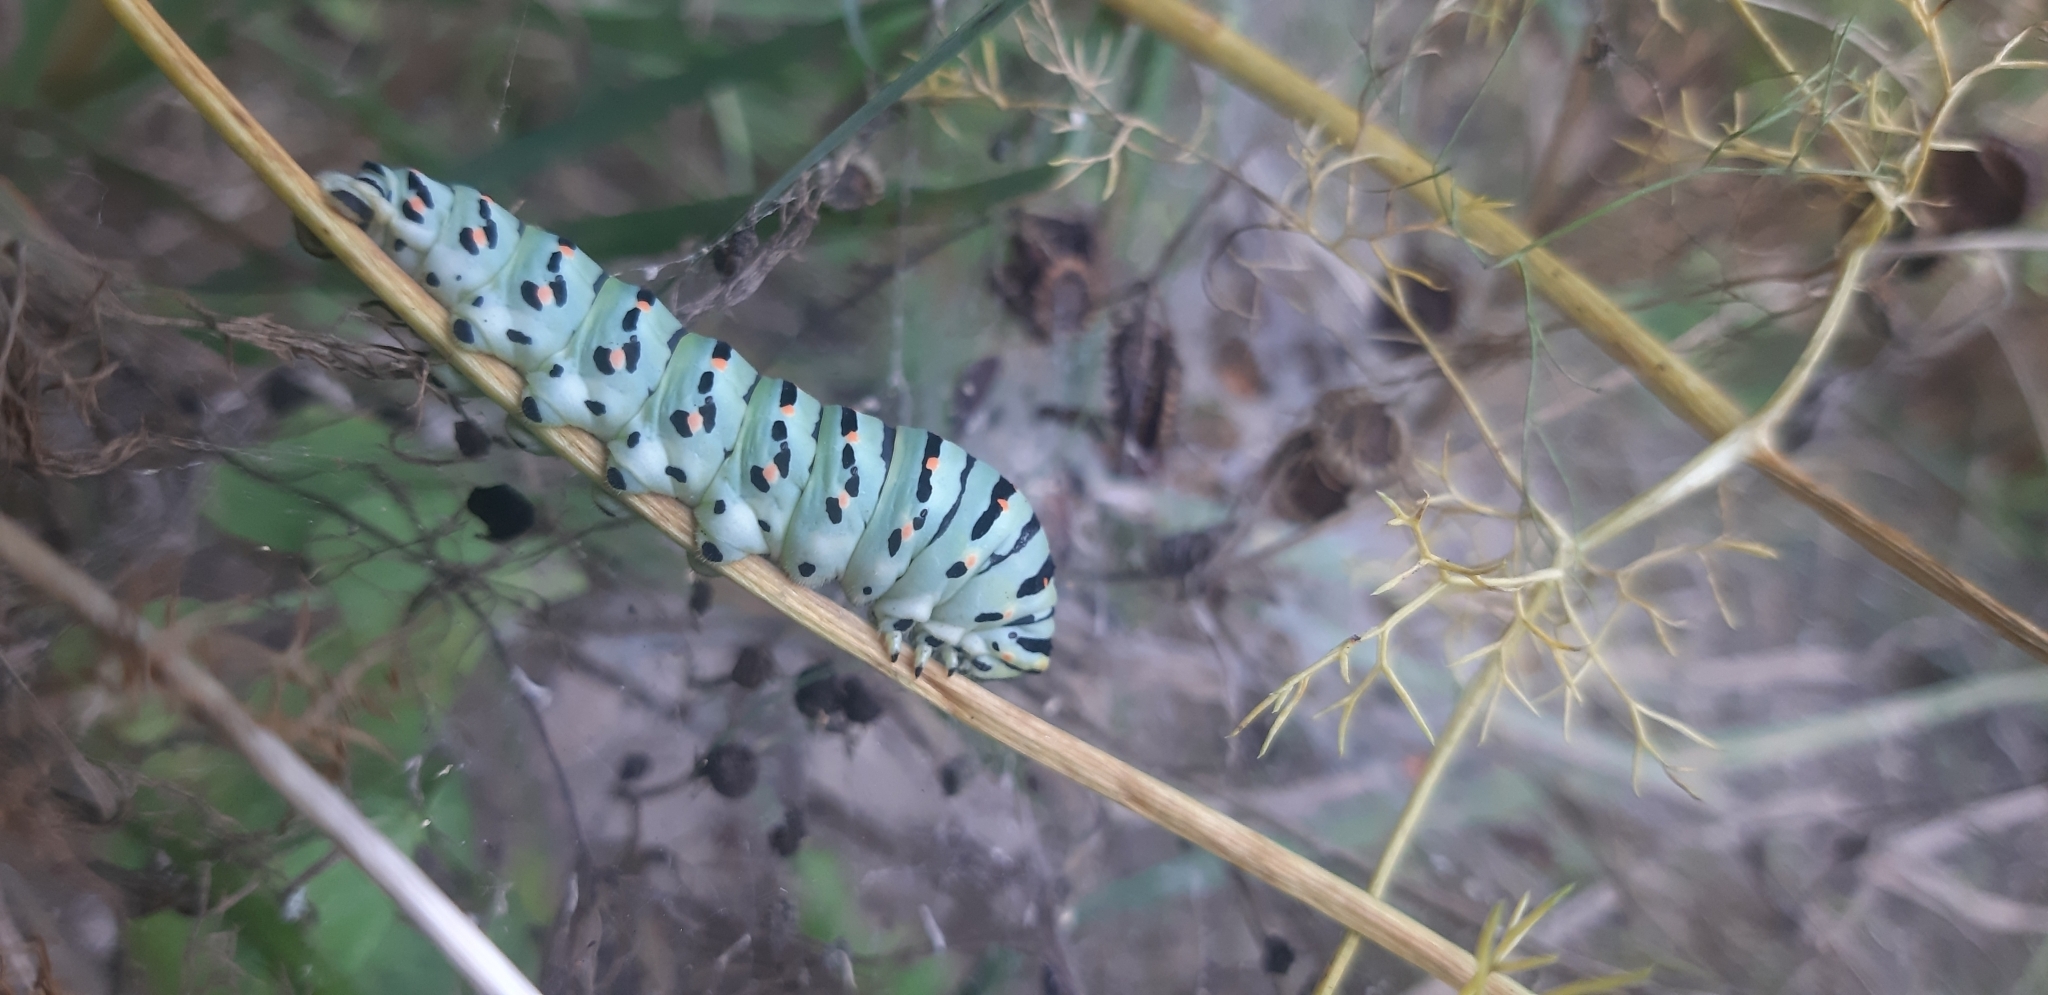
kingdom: Animalia
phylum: Arthropoda
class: Insecta
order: Lepidoptera
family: Papilionidae
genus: Papilio
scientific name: Papilio machaon
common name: Swallowtail
